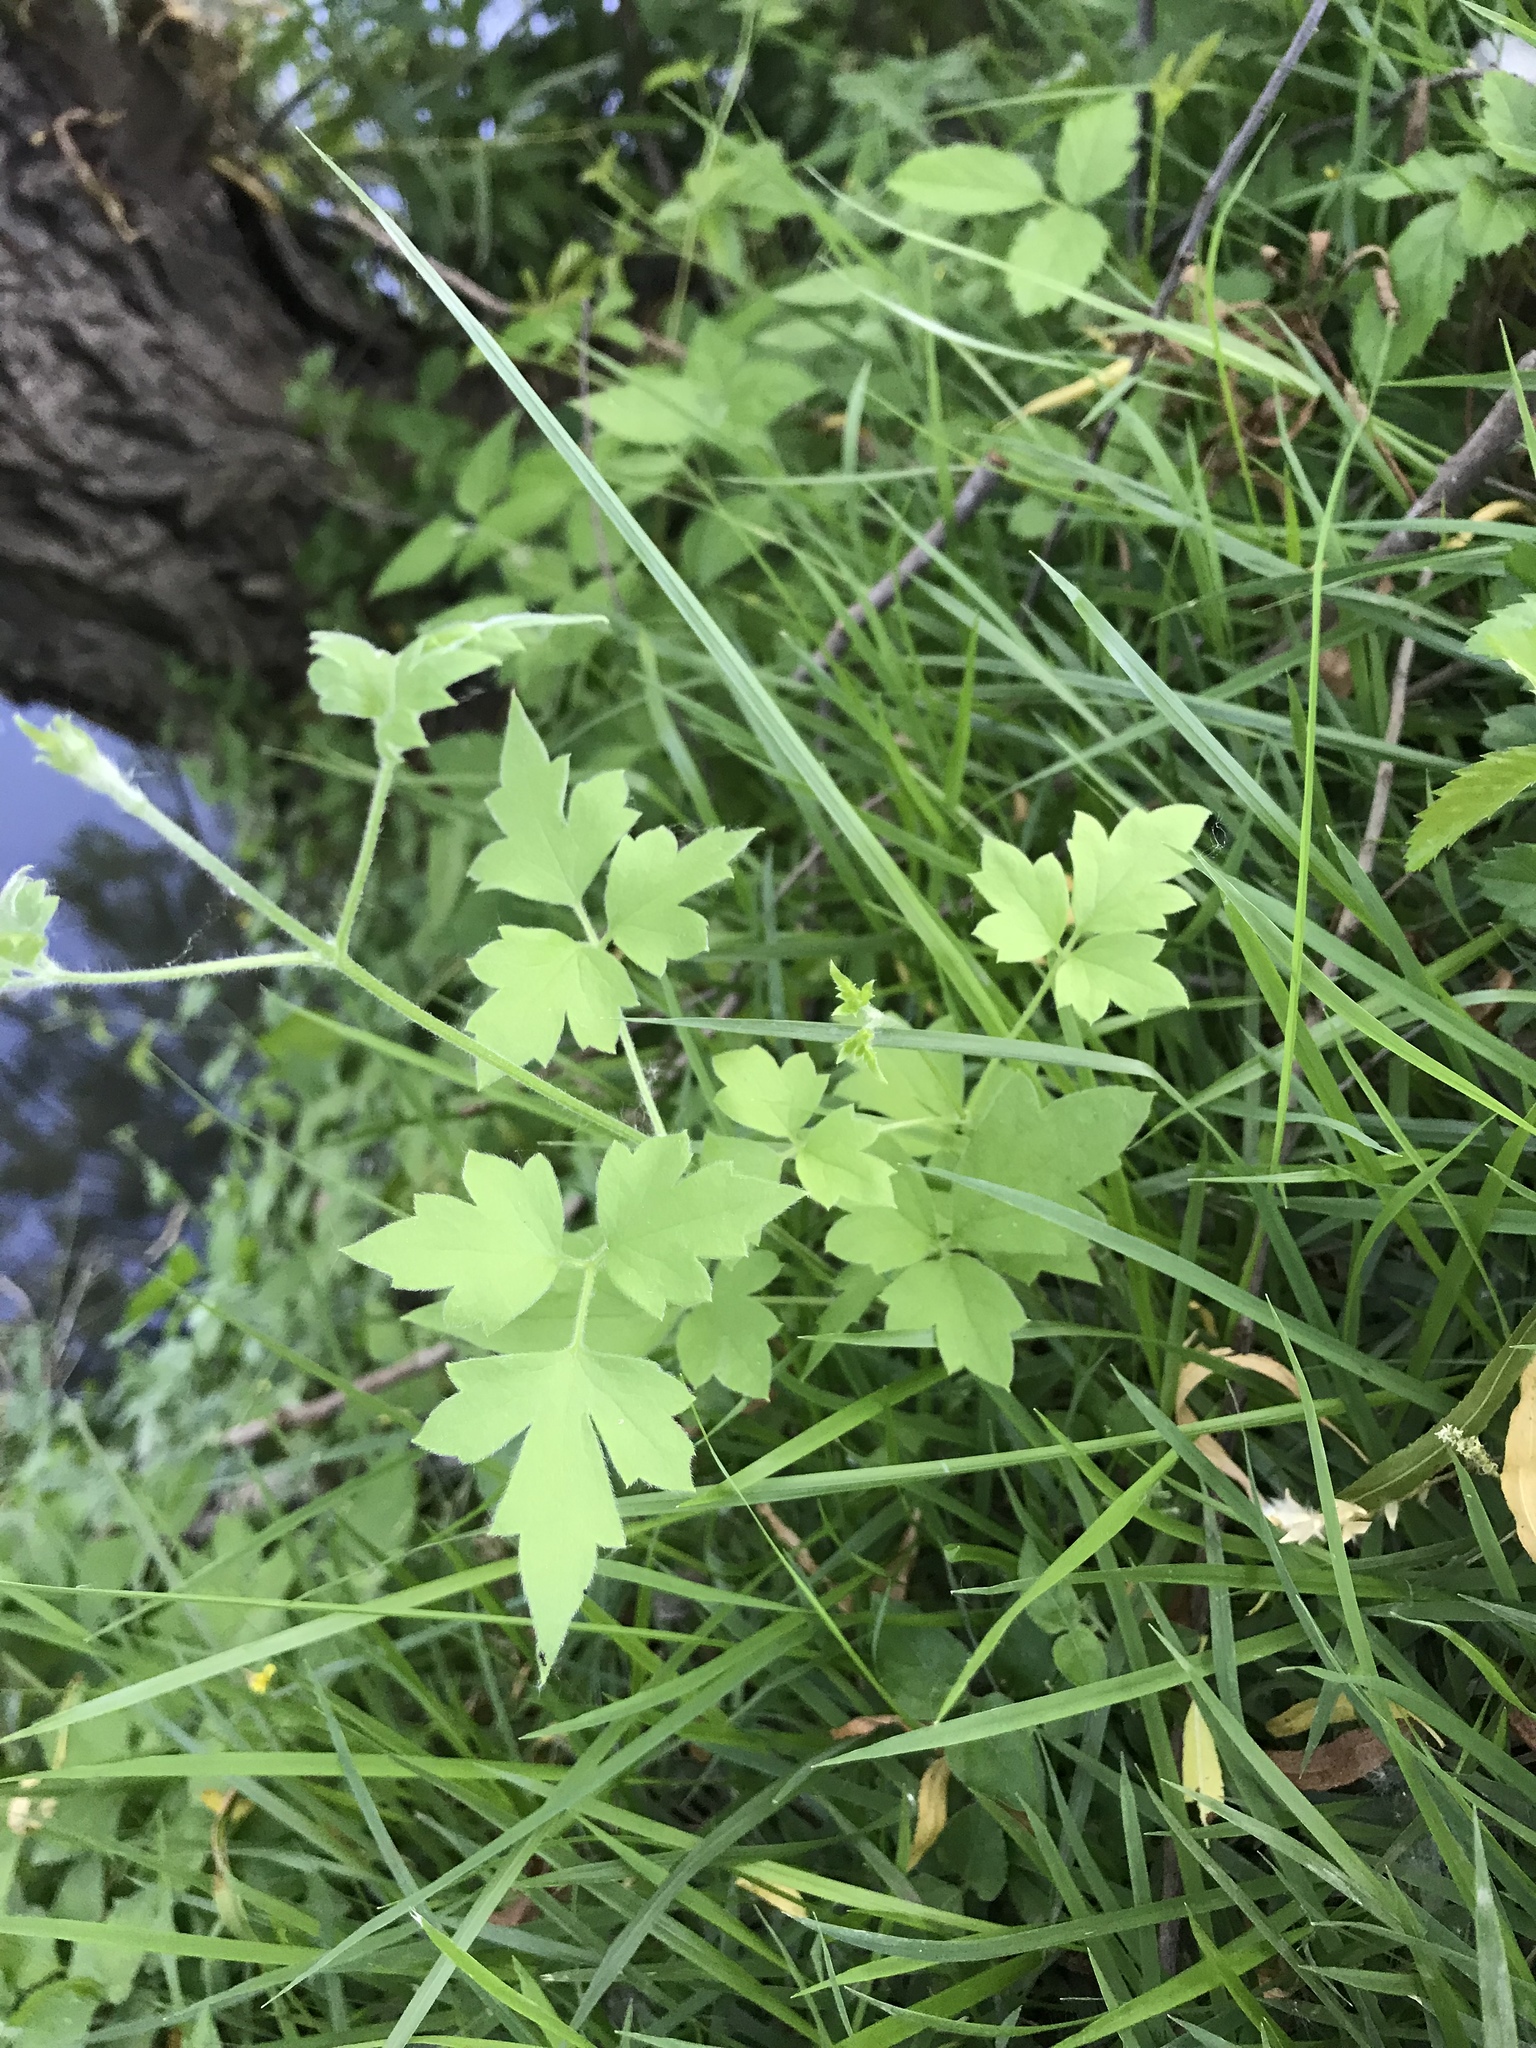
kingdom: Plantae
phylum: Tracheophyta
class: Magnoliopsida
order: Ranunculales
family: Ranunculaceae
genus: Clematis
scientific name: Clematis drummondii
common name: Texas virgin's bower
